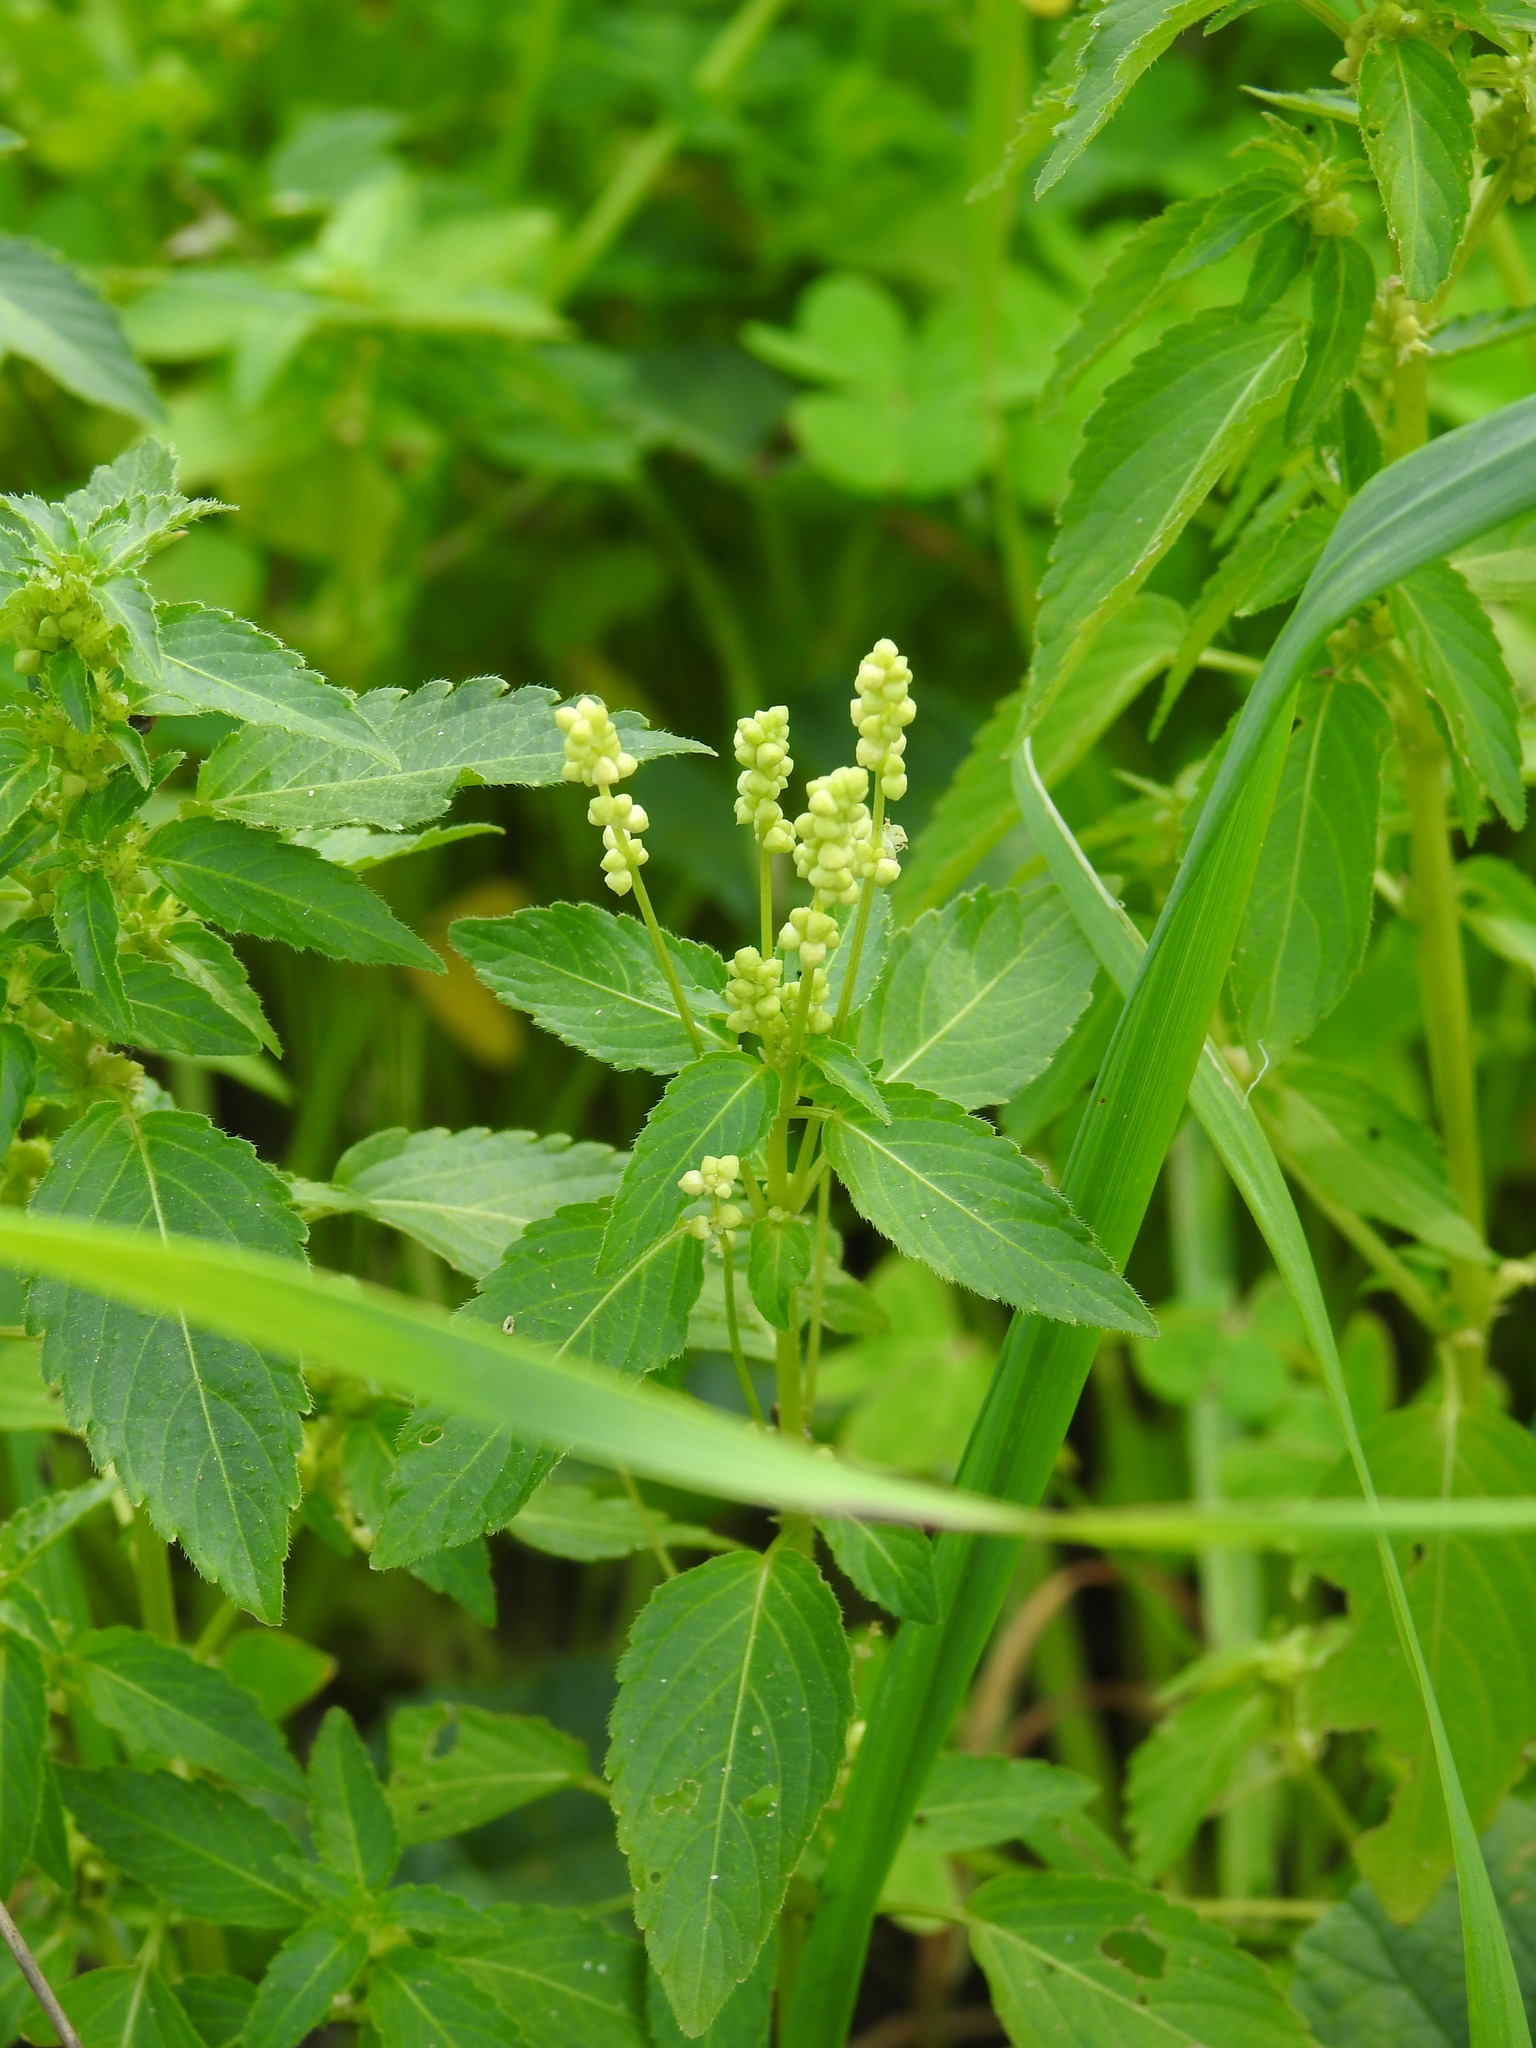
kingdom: Plantae
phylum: Tracheophyta
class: Magnoliopsida
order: Malpighiales
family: Euphorbiaceae
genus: Mercurialis
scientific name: Mercurialis annua
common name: Annual mercury
